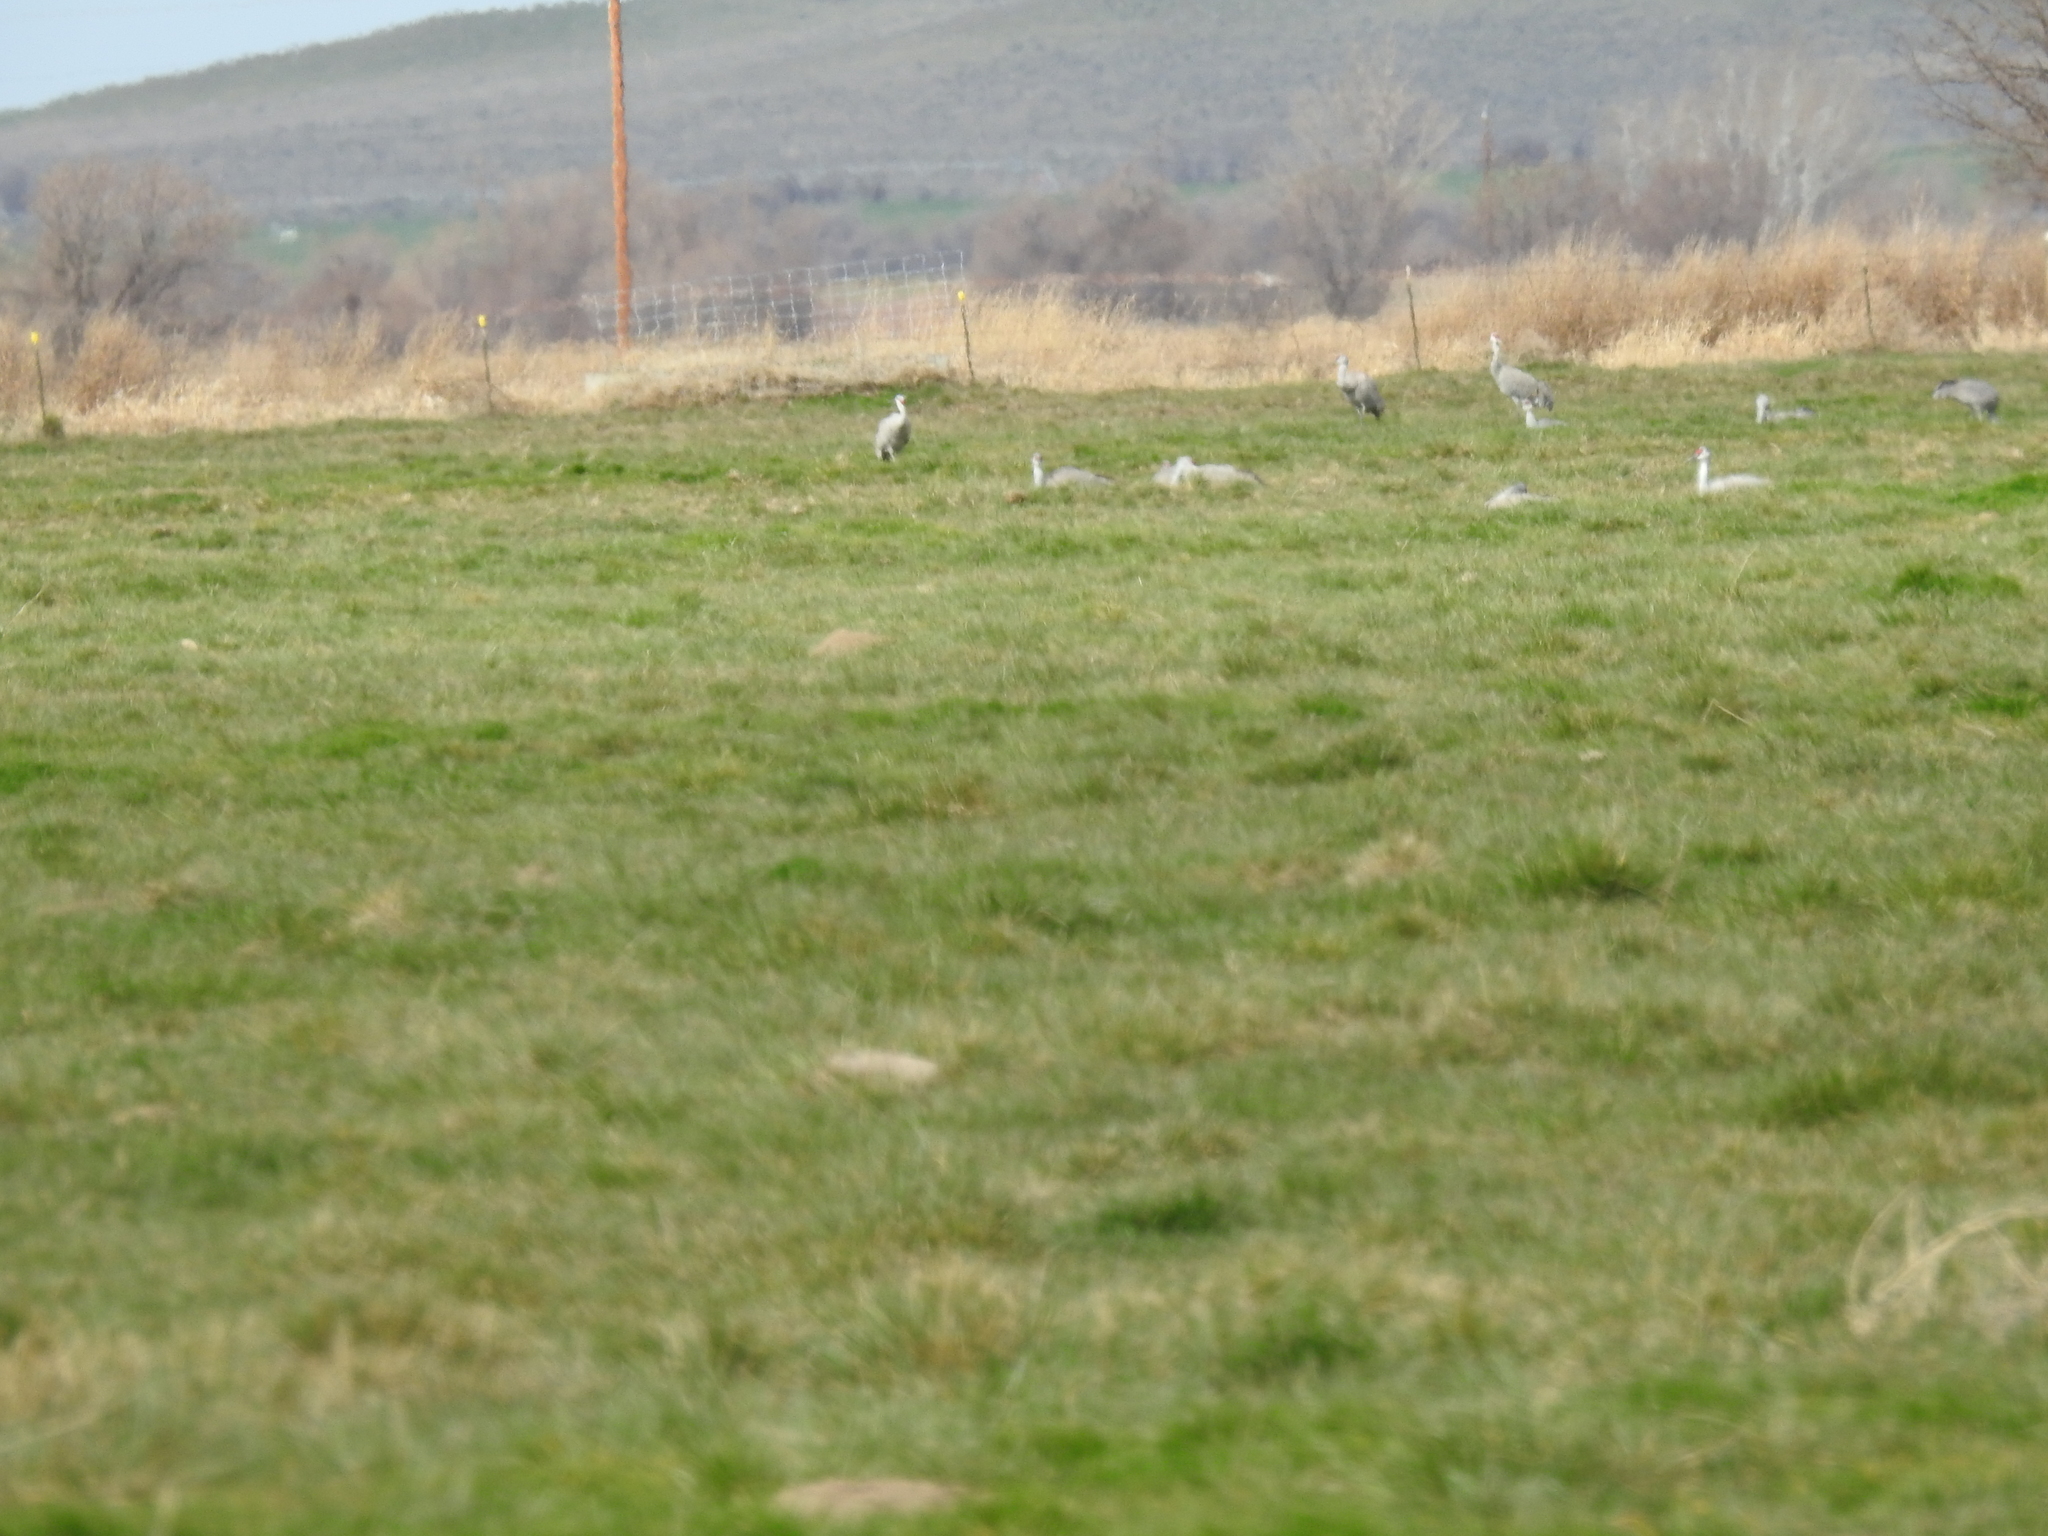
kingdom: Animalia
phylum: Chordata
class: Aves
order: Gruiformes
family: Gruidae
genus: Grus
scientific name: Grus canadensis
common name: Sandhill crane
